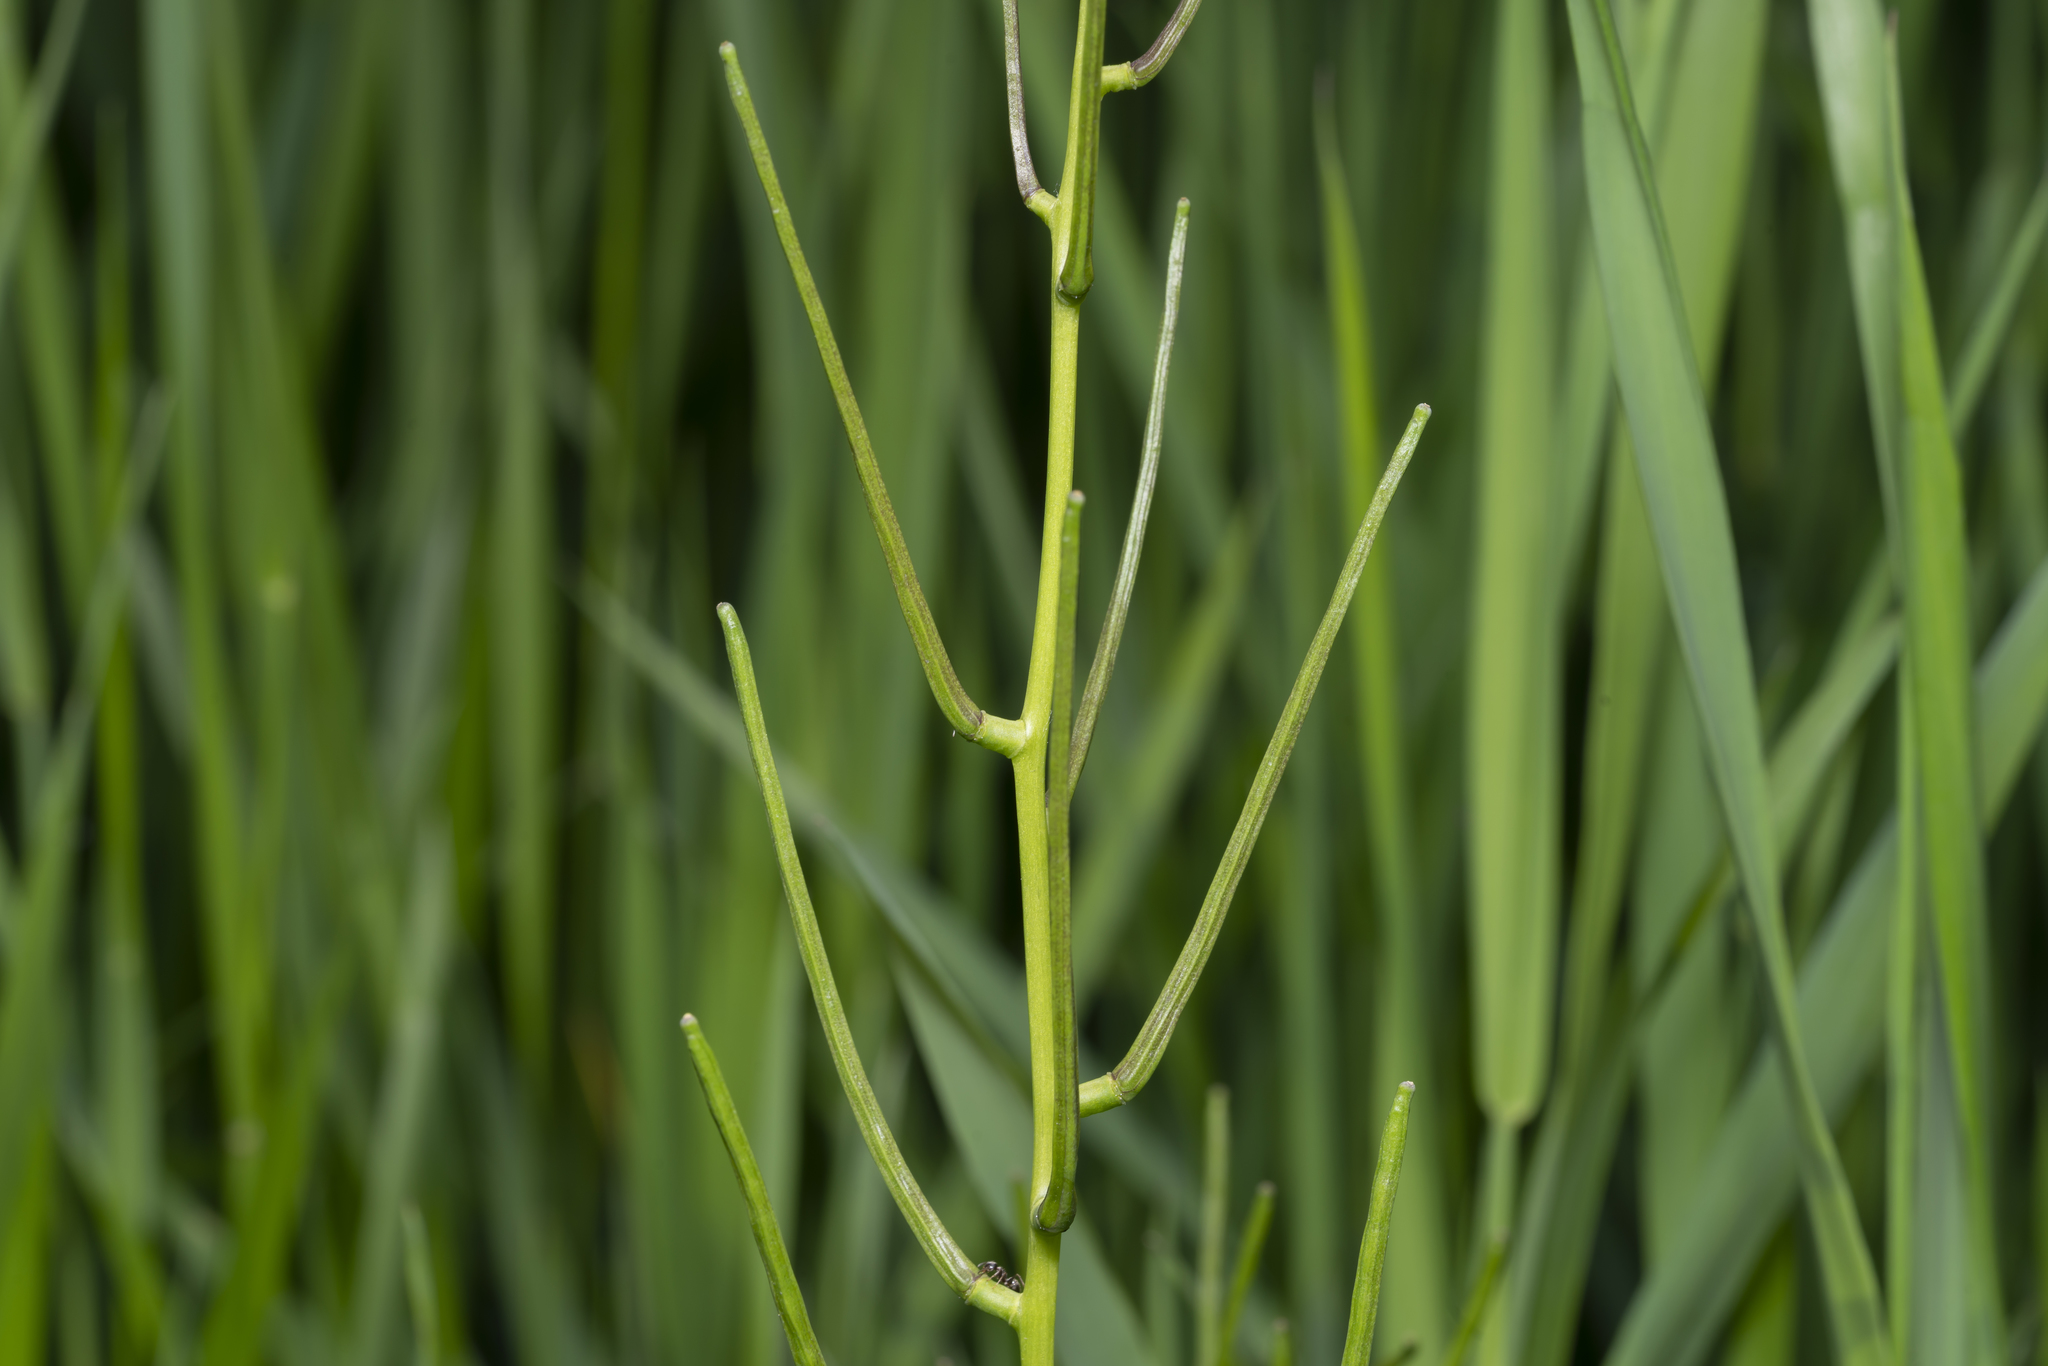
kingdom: Plantae
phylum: Tracheophyta
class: Magnoliopsida
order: Brassicales
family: Brassicaceae
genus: Alliaria
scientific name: Alliaria petiolata
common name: Garlic mustard
